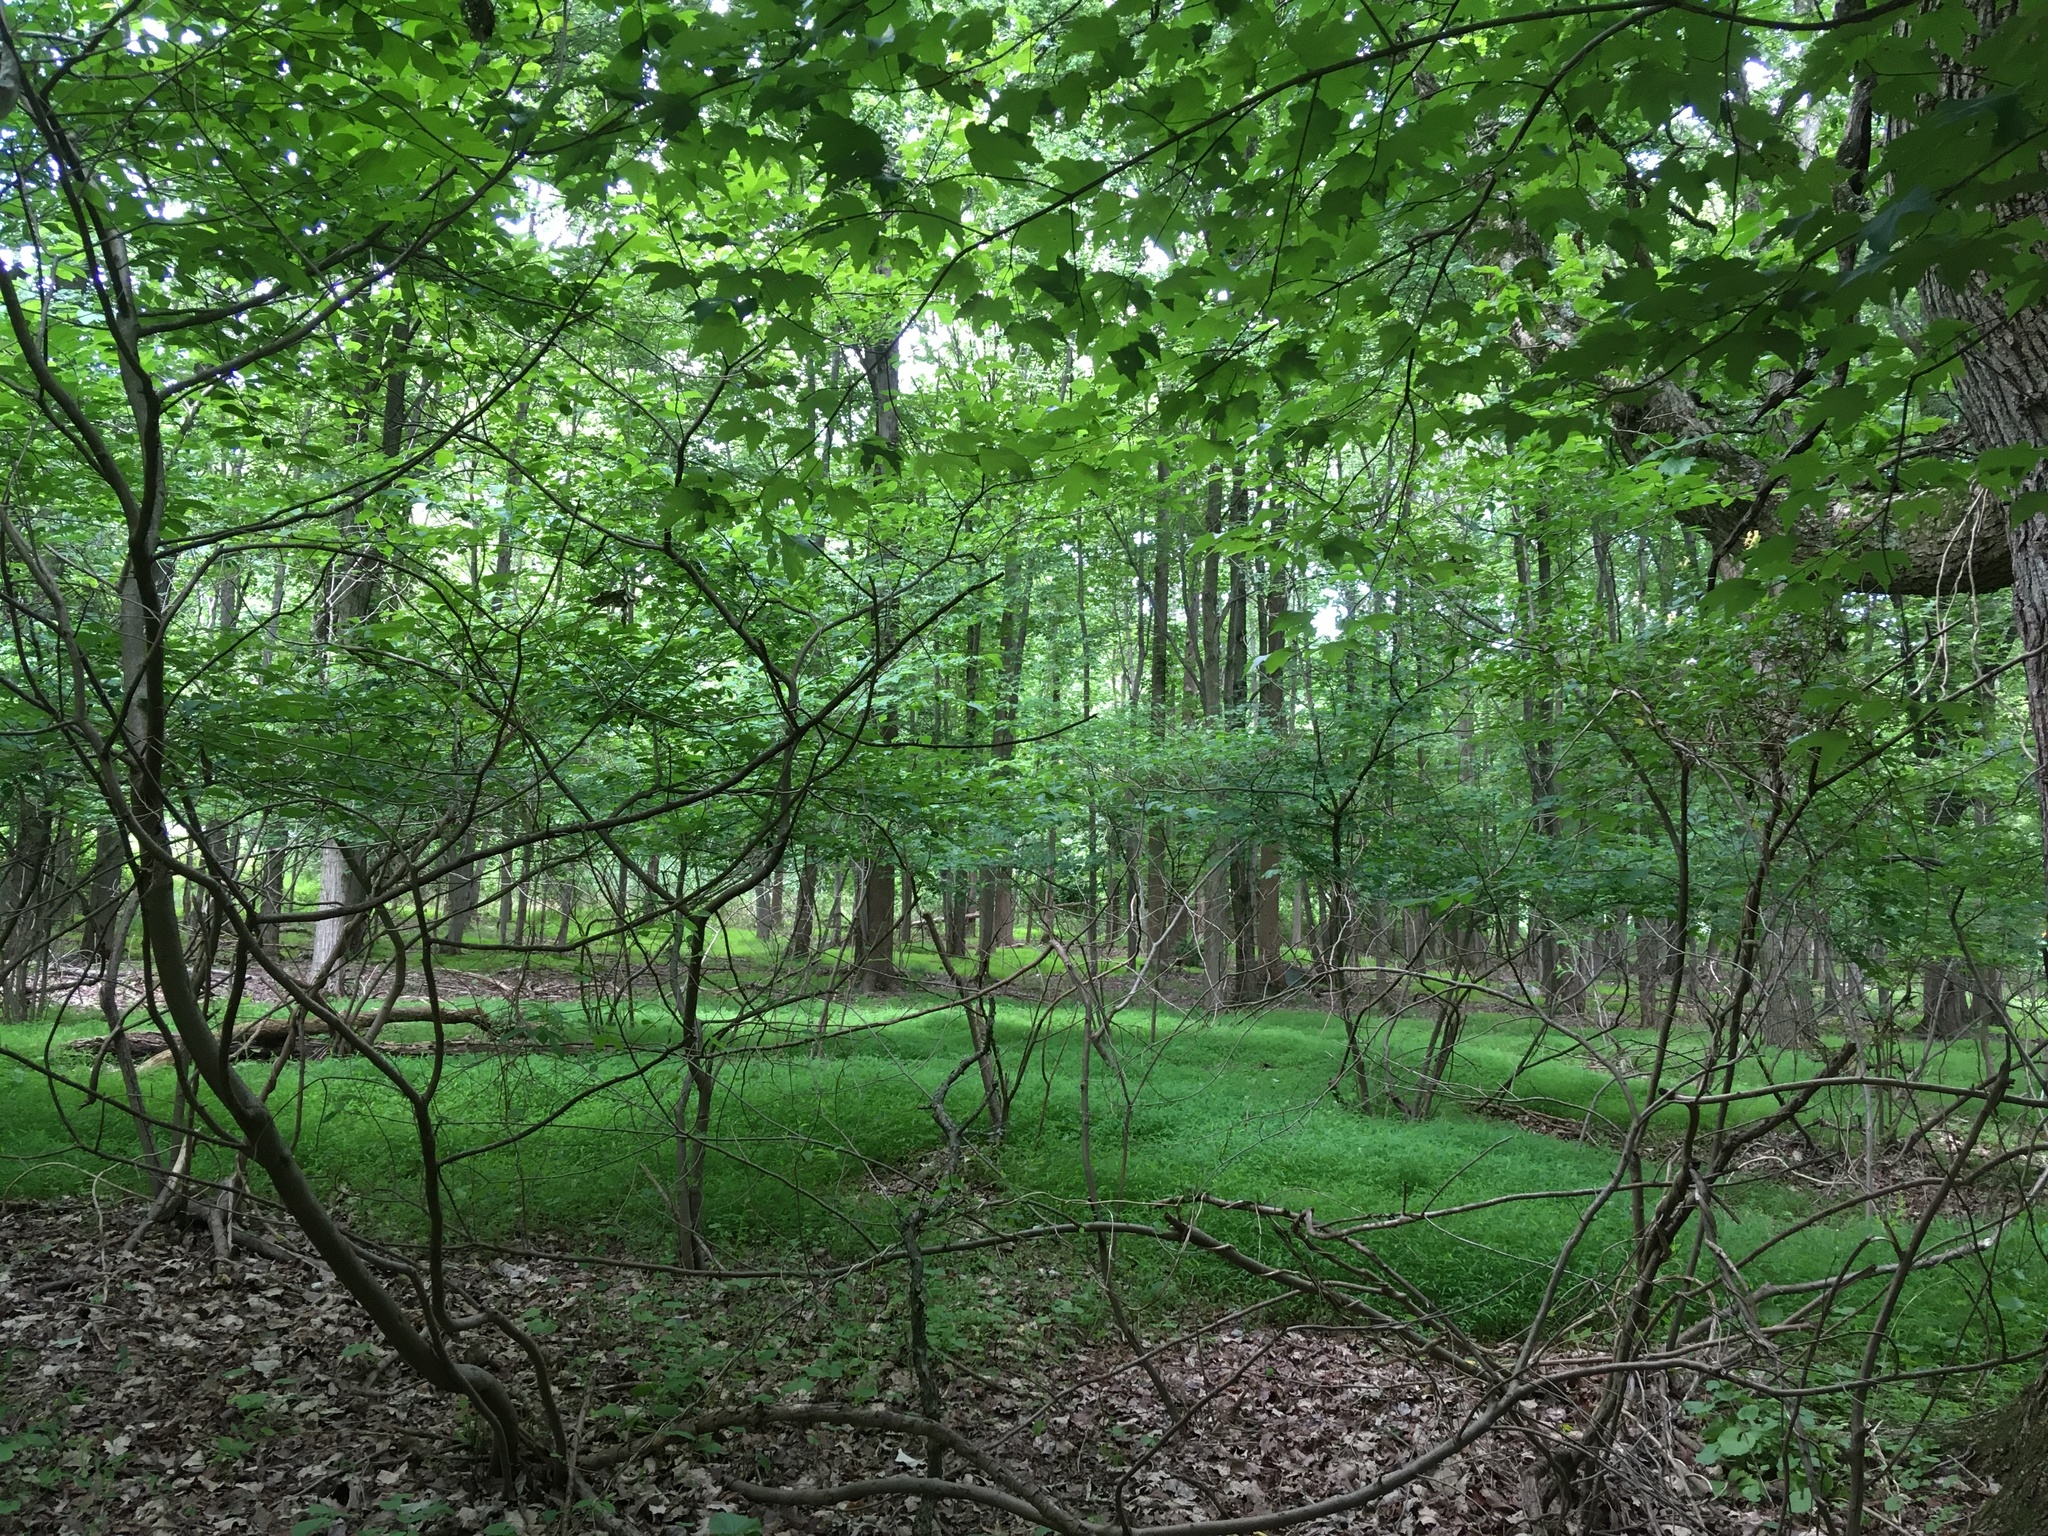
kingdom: Plantae
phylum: Tracheophyta
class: Liliopsida
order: Poales
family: Poaceae
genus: Microstegium
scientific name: Microstegium vimineum
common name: Japanese stiltgrass
